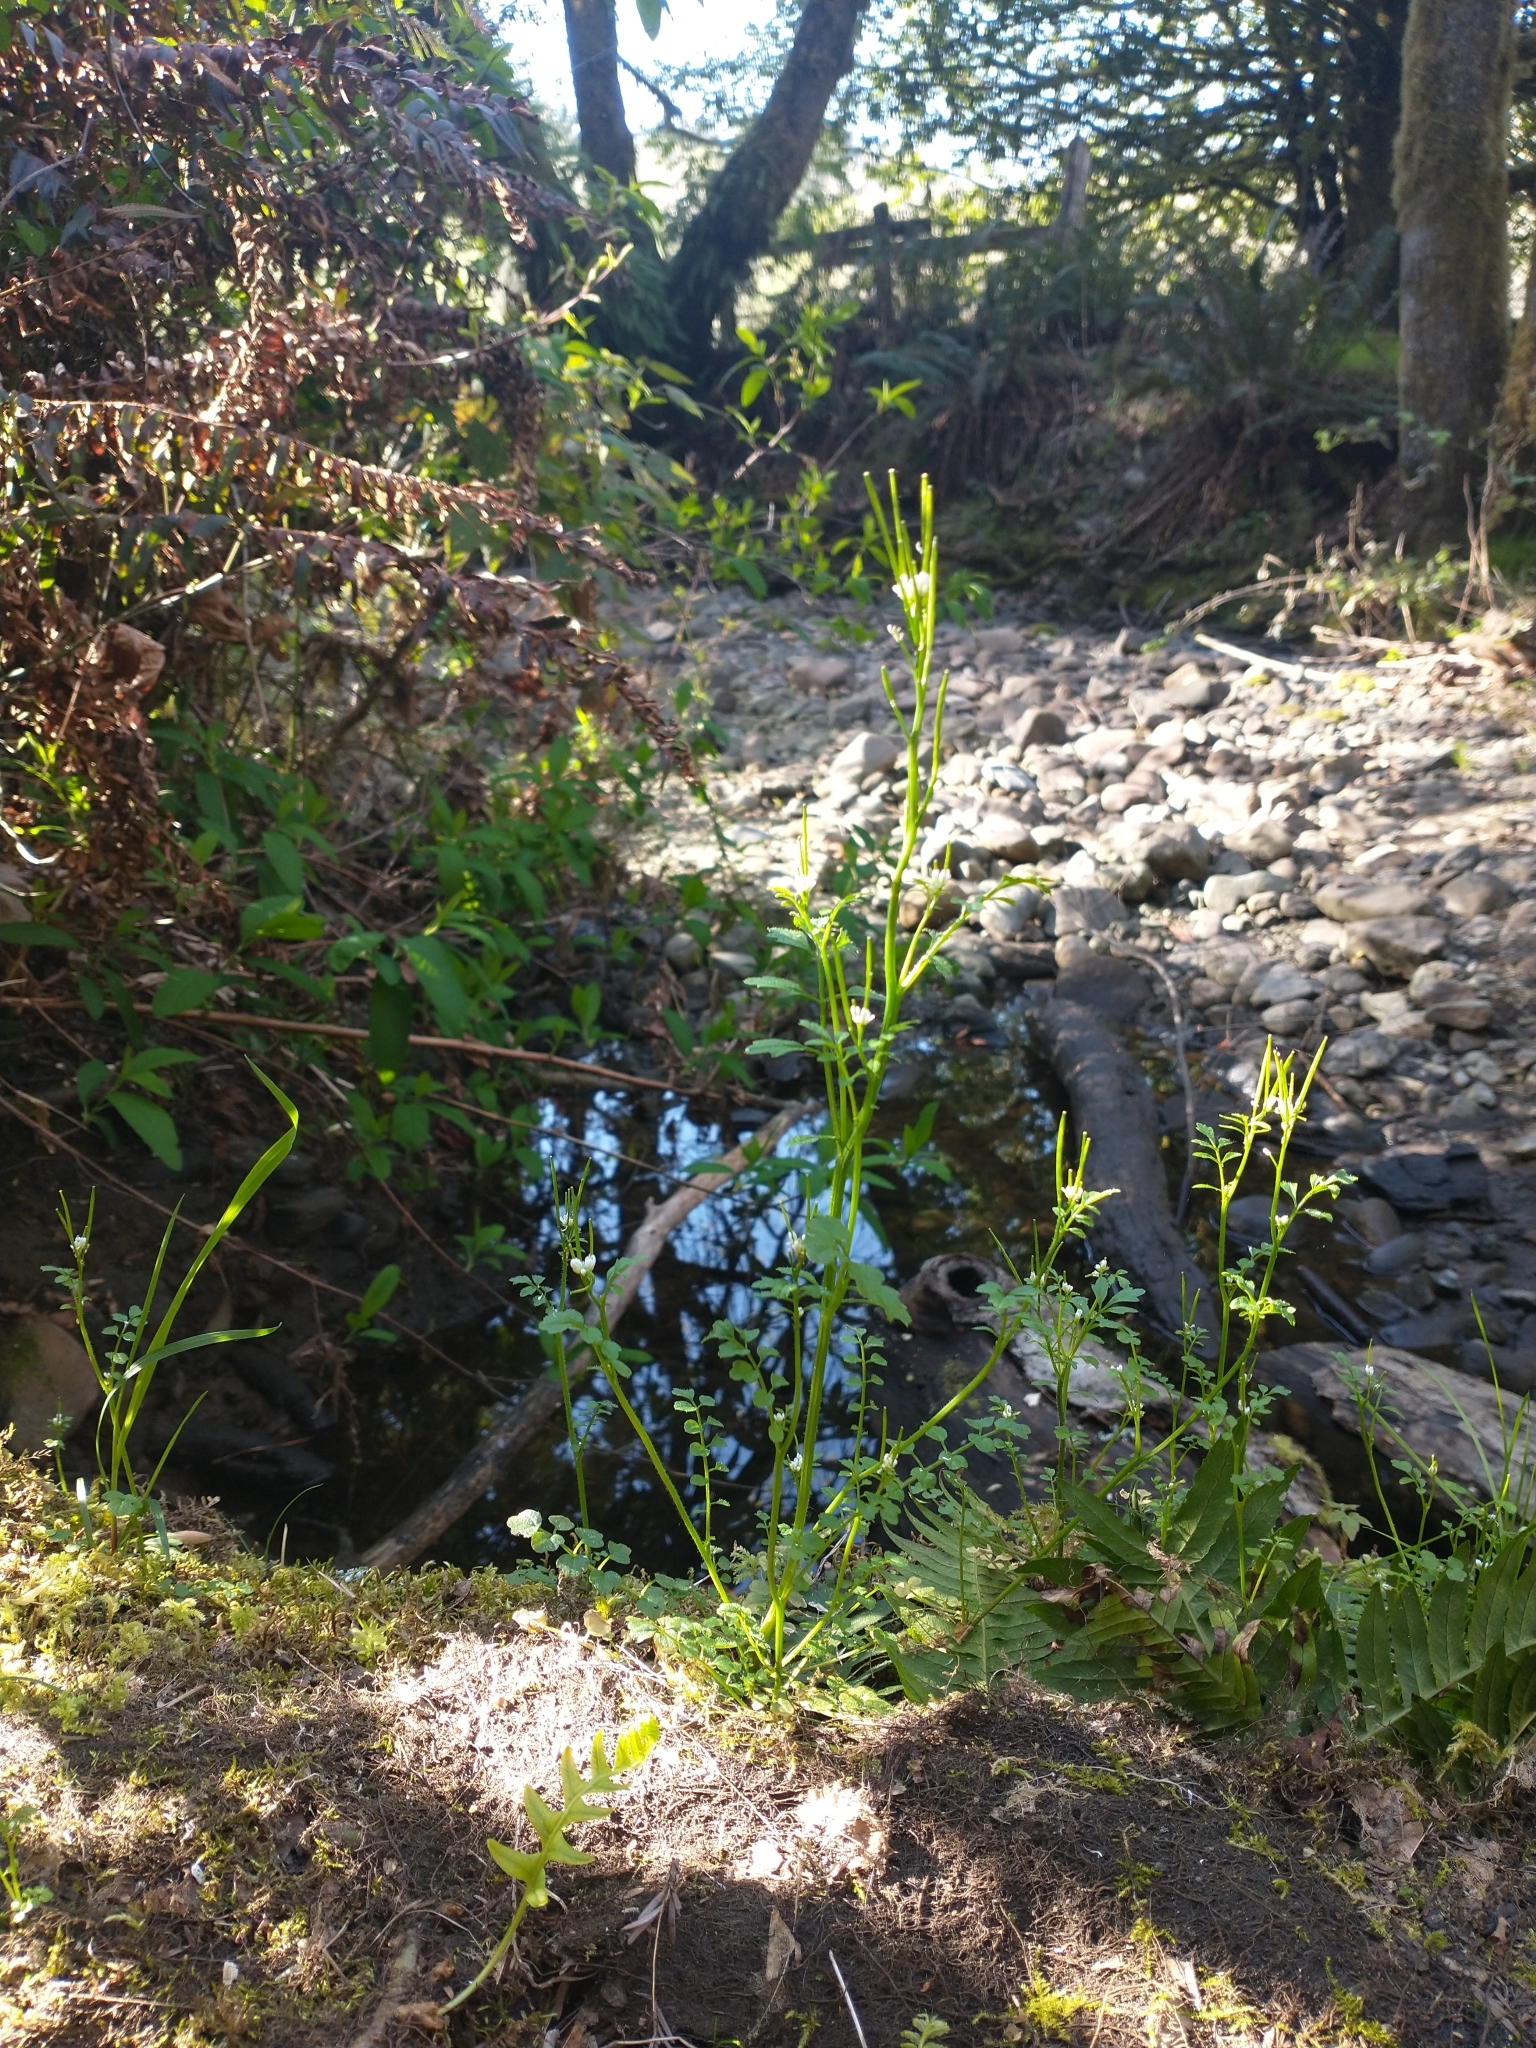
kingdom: Plantae
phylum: Tracheophyta
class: Magnoliopsida
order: Brassicales
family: Brassicaceae
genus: Cardamine
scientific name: Cardamine oligosperma
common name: Idaho bittercress
